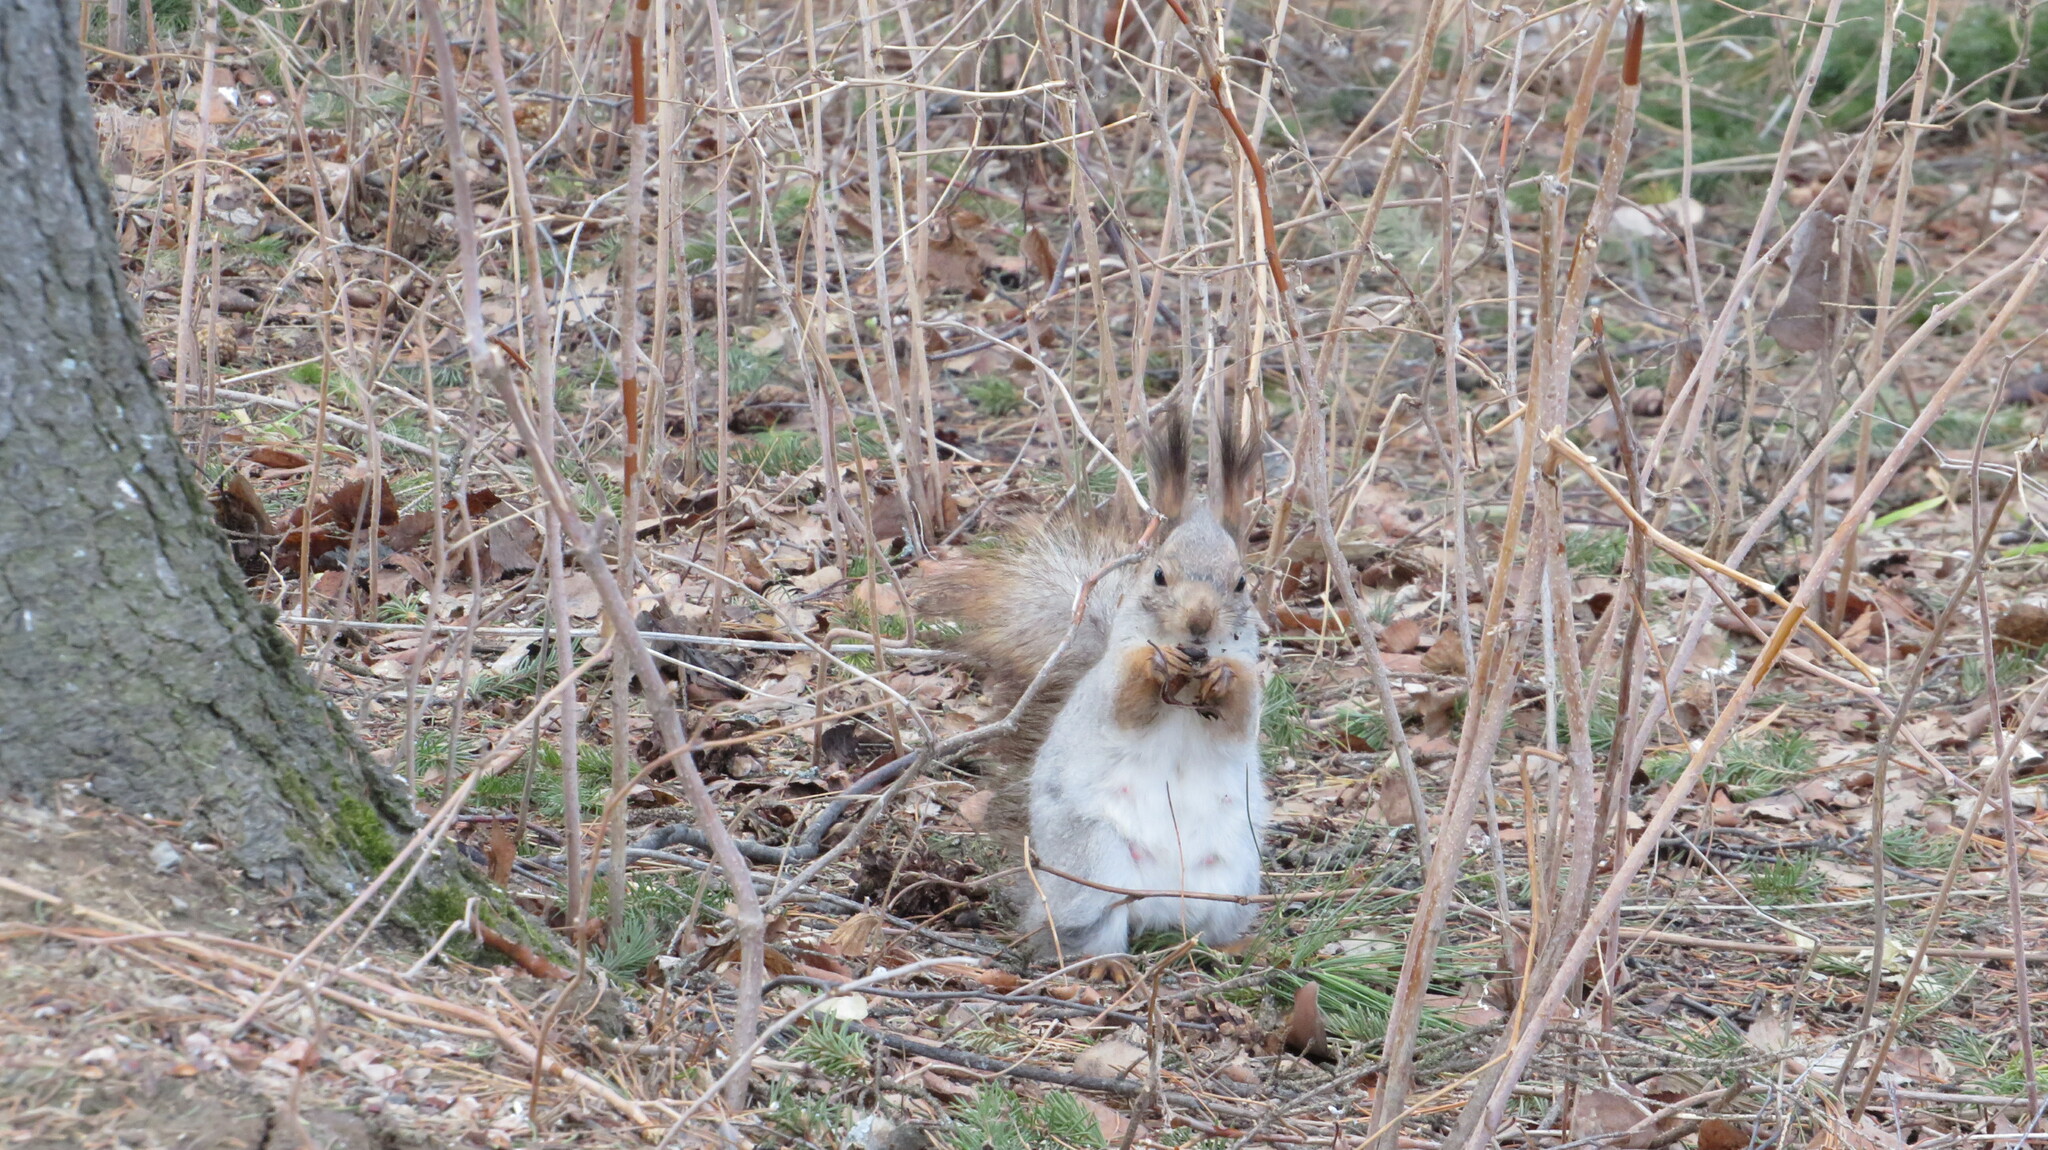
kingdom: Animalia
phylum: Chordata
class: Mammalia
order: Rodentia
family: Sciuridae
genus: Sciurus
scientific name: Sciurus vulgaris
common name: Eurasian red squirrel
